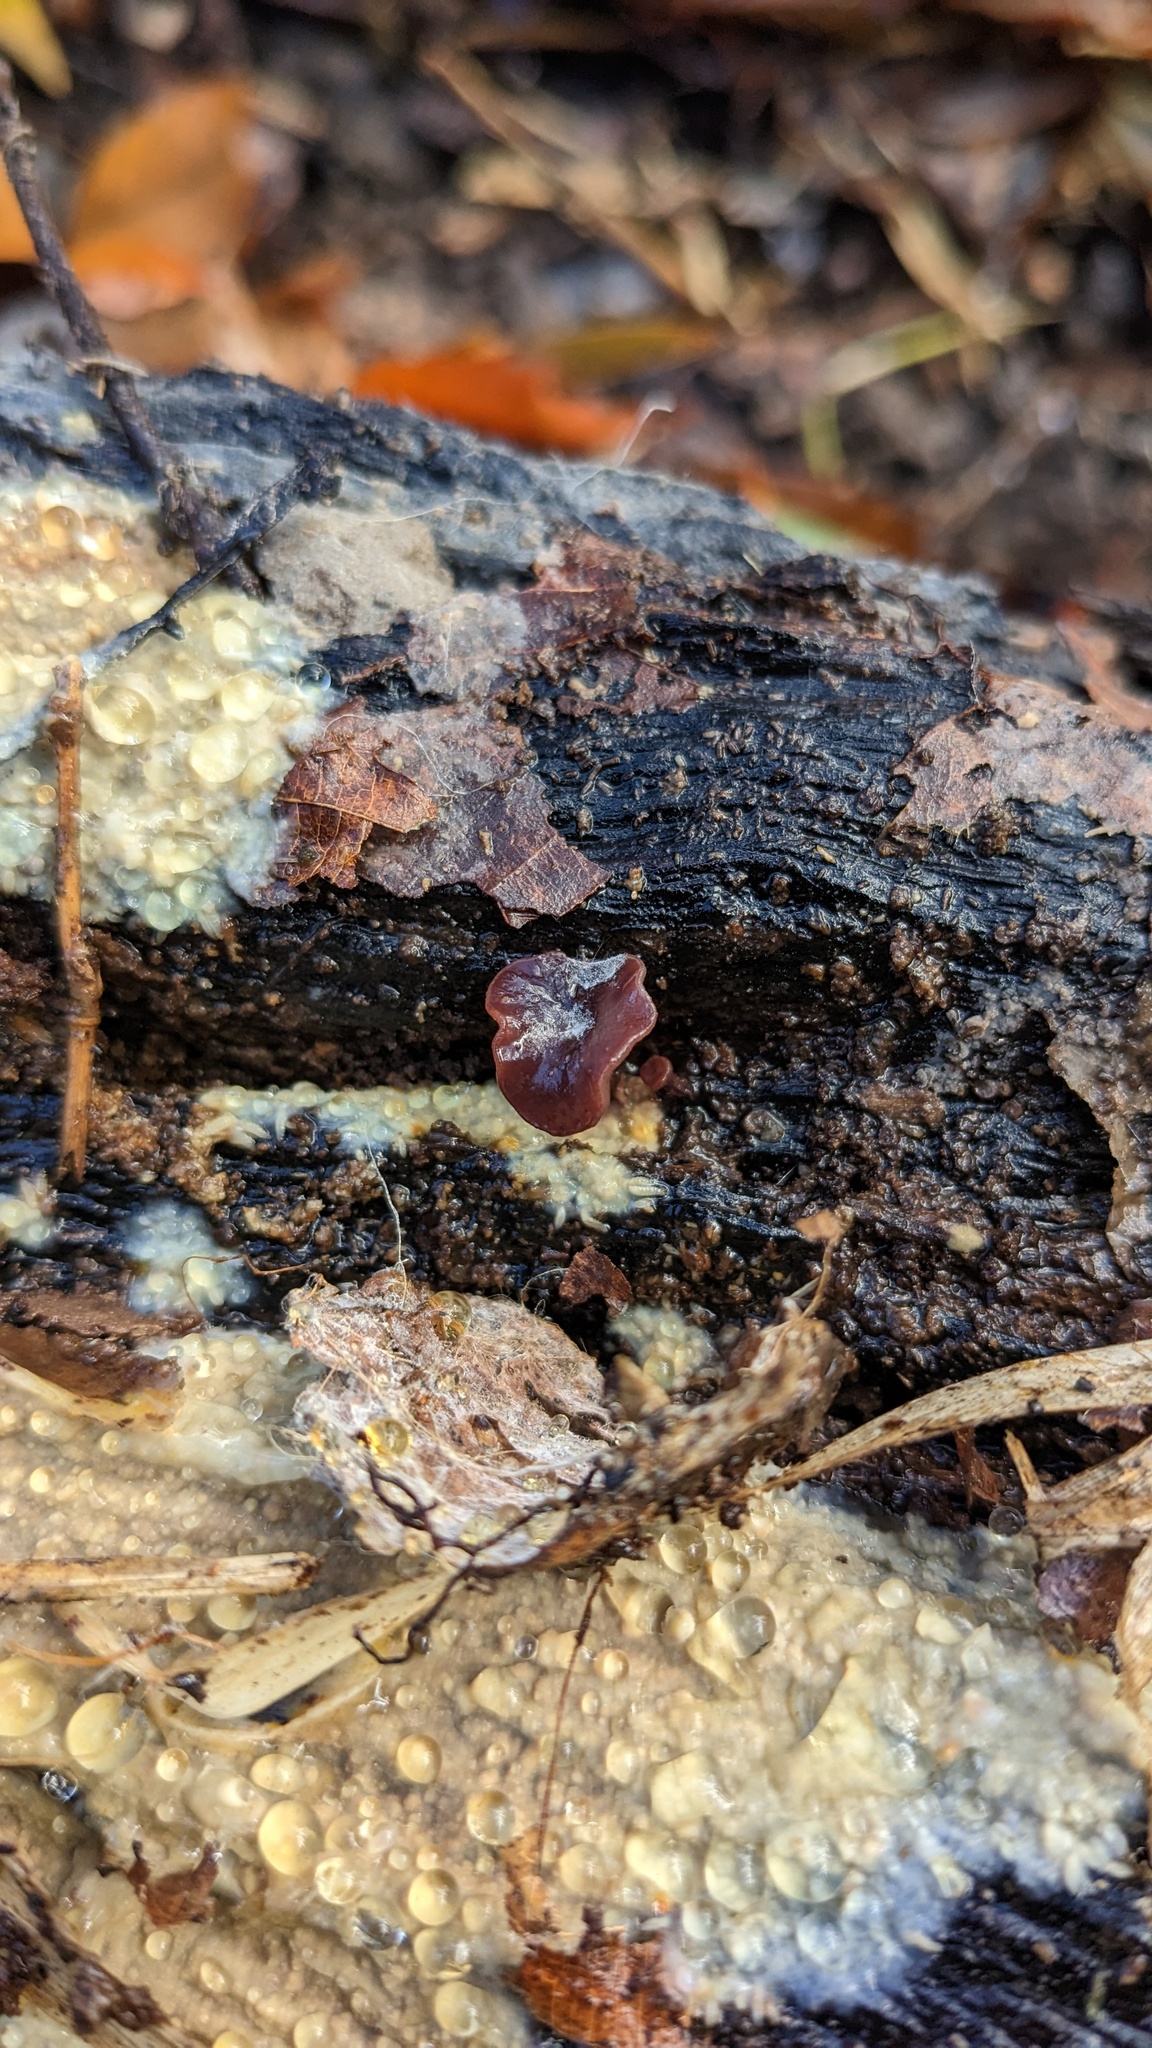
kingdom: Fungi
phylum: Ascomycota
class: Leotiomycetes
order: Helotiales
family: Gelatinodiscaceae
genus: Ascocoryne
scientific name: Ascocoryne cylichnium
